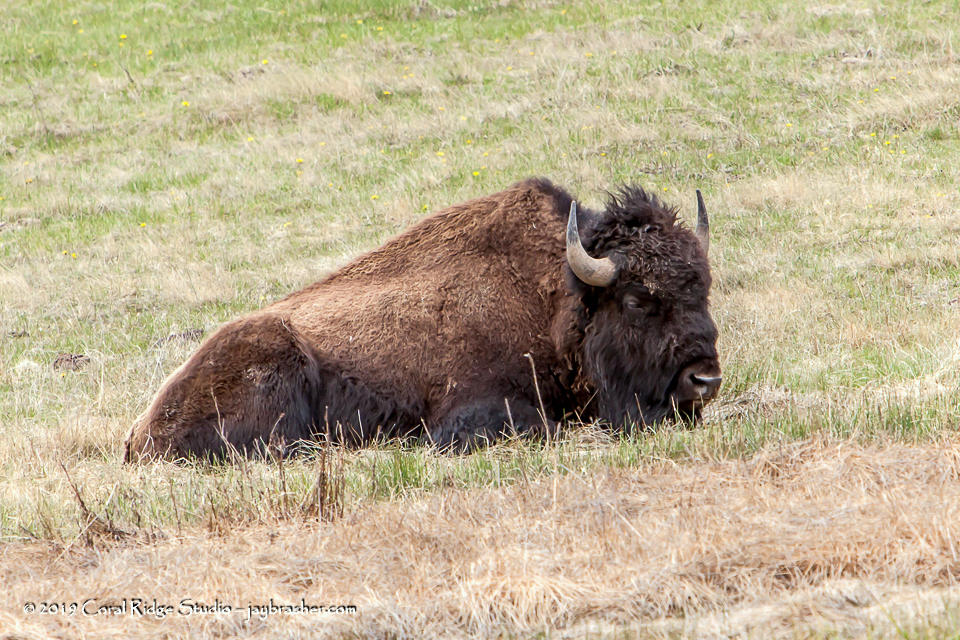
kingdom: Animalia
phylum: Chordata
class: Mammalia
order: Artiodactyla
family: Bovidae
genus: Bison
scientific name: Bison bison
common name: American bison
